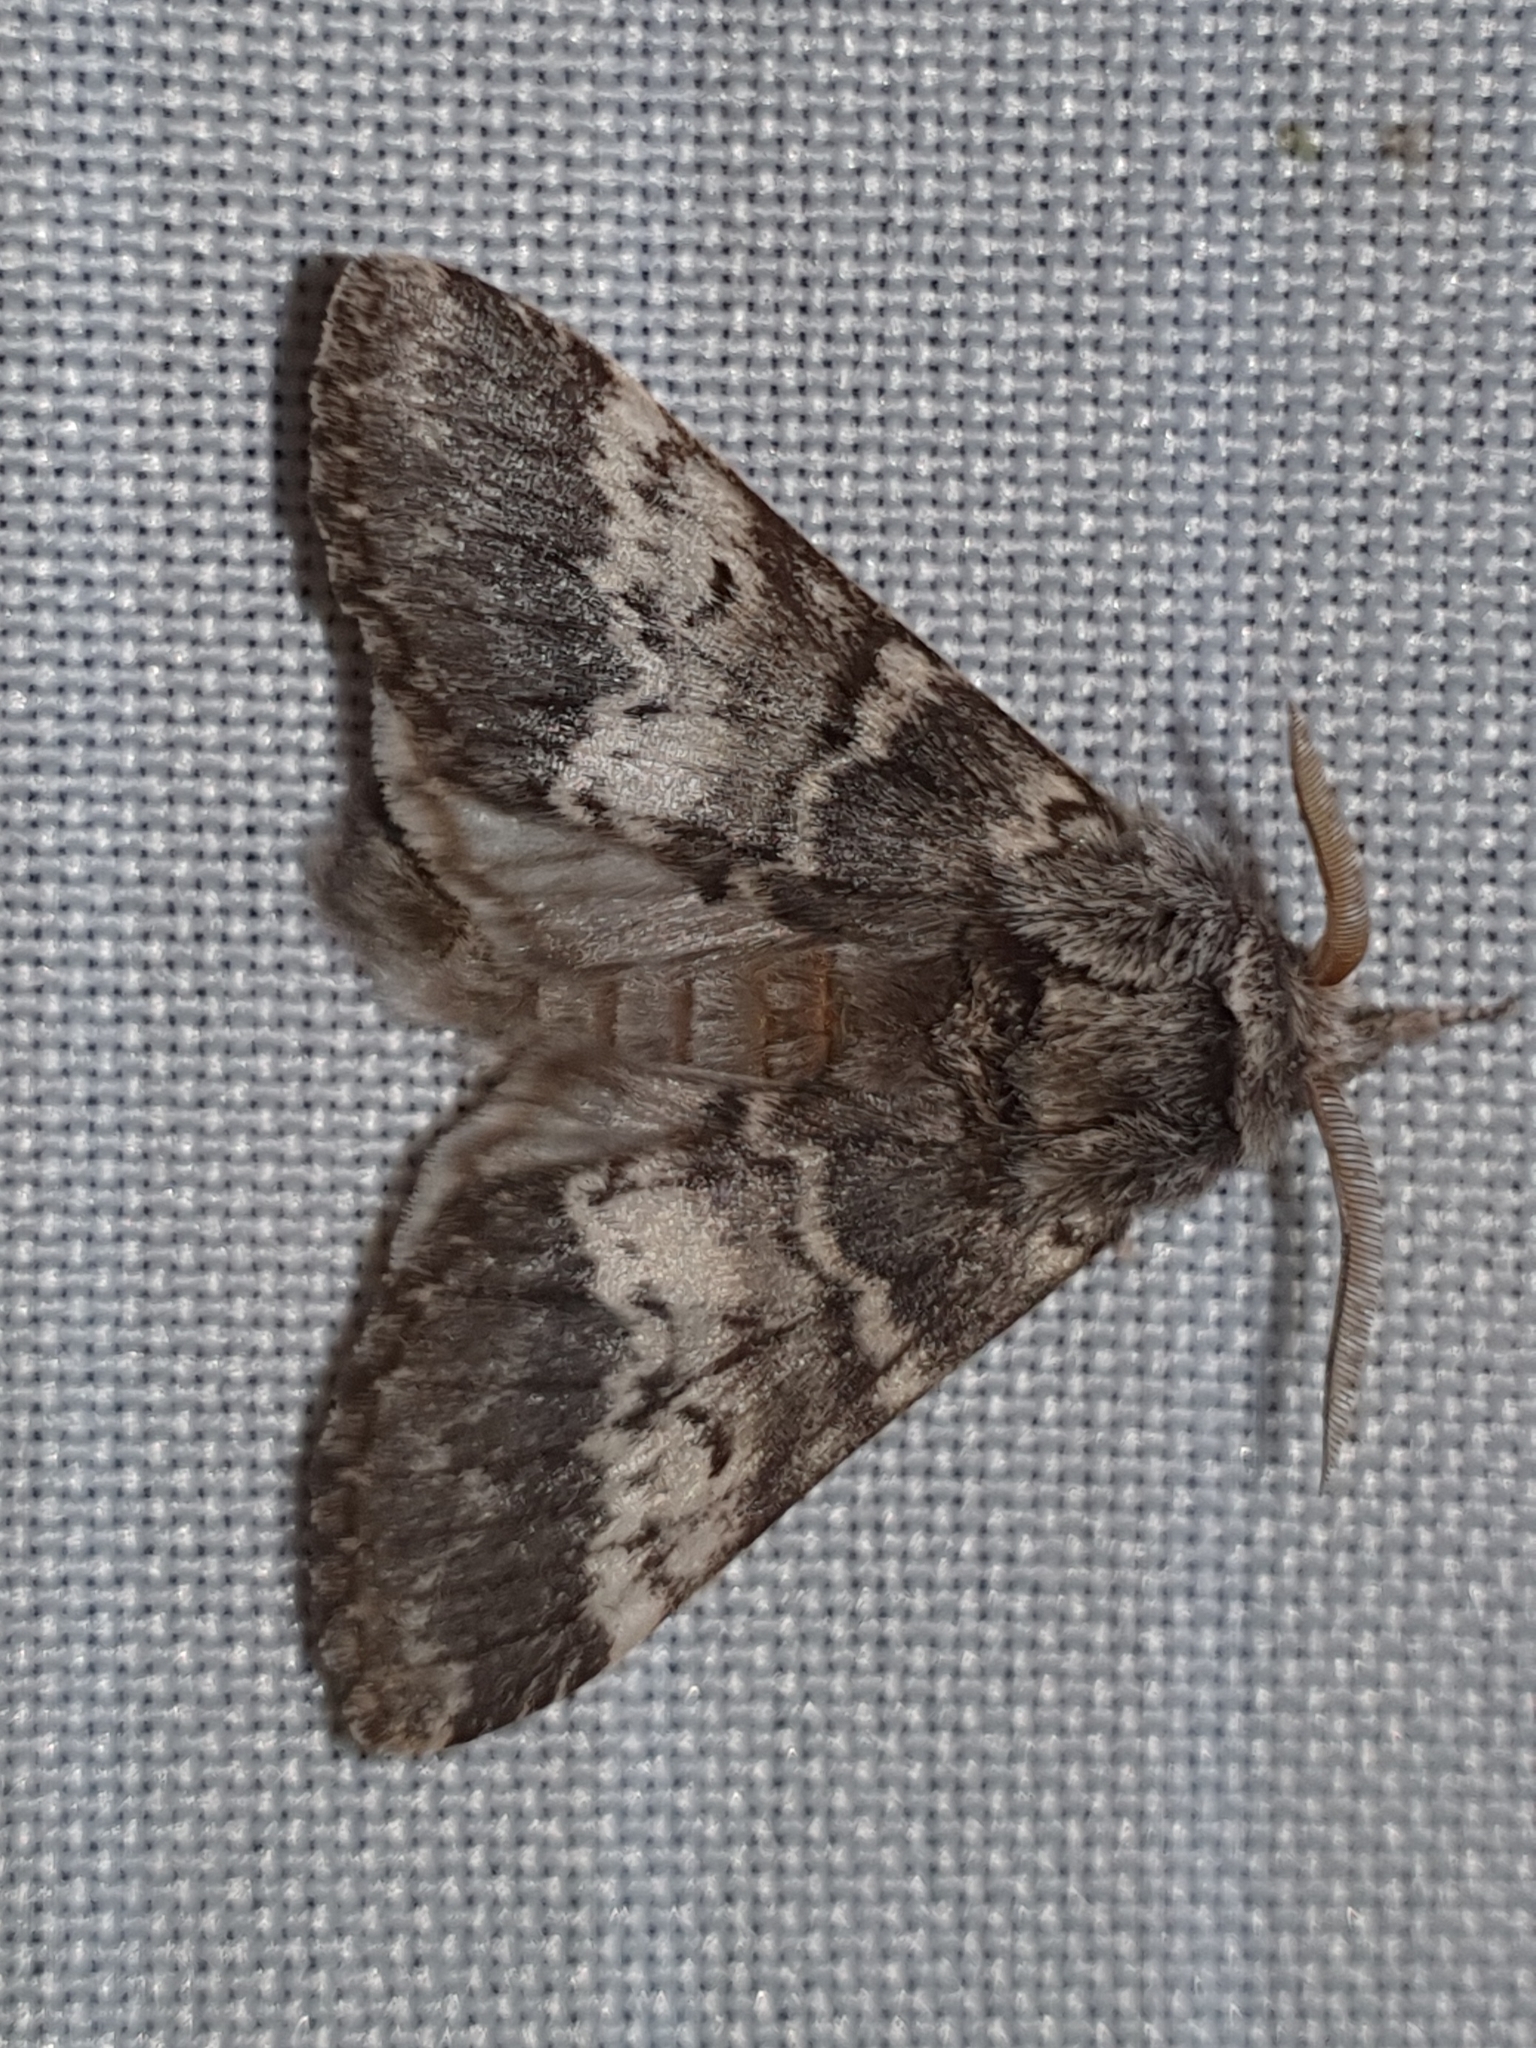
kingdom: Animalia
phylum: Arthropoda
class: Insecta
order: Lepidoptera
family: Notodontidae
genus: Drymonia
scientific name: Drymonia ruficornis
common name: Lunar marbled brown
